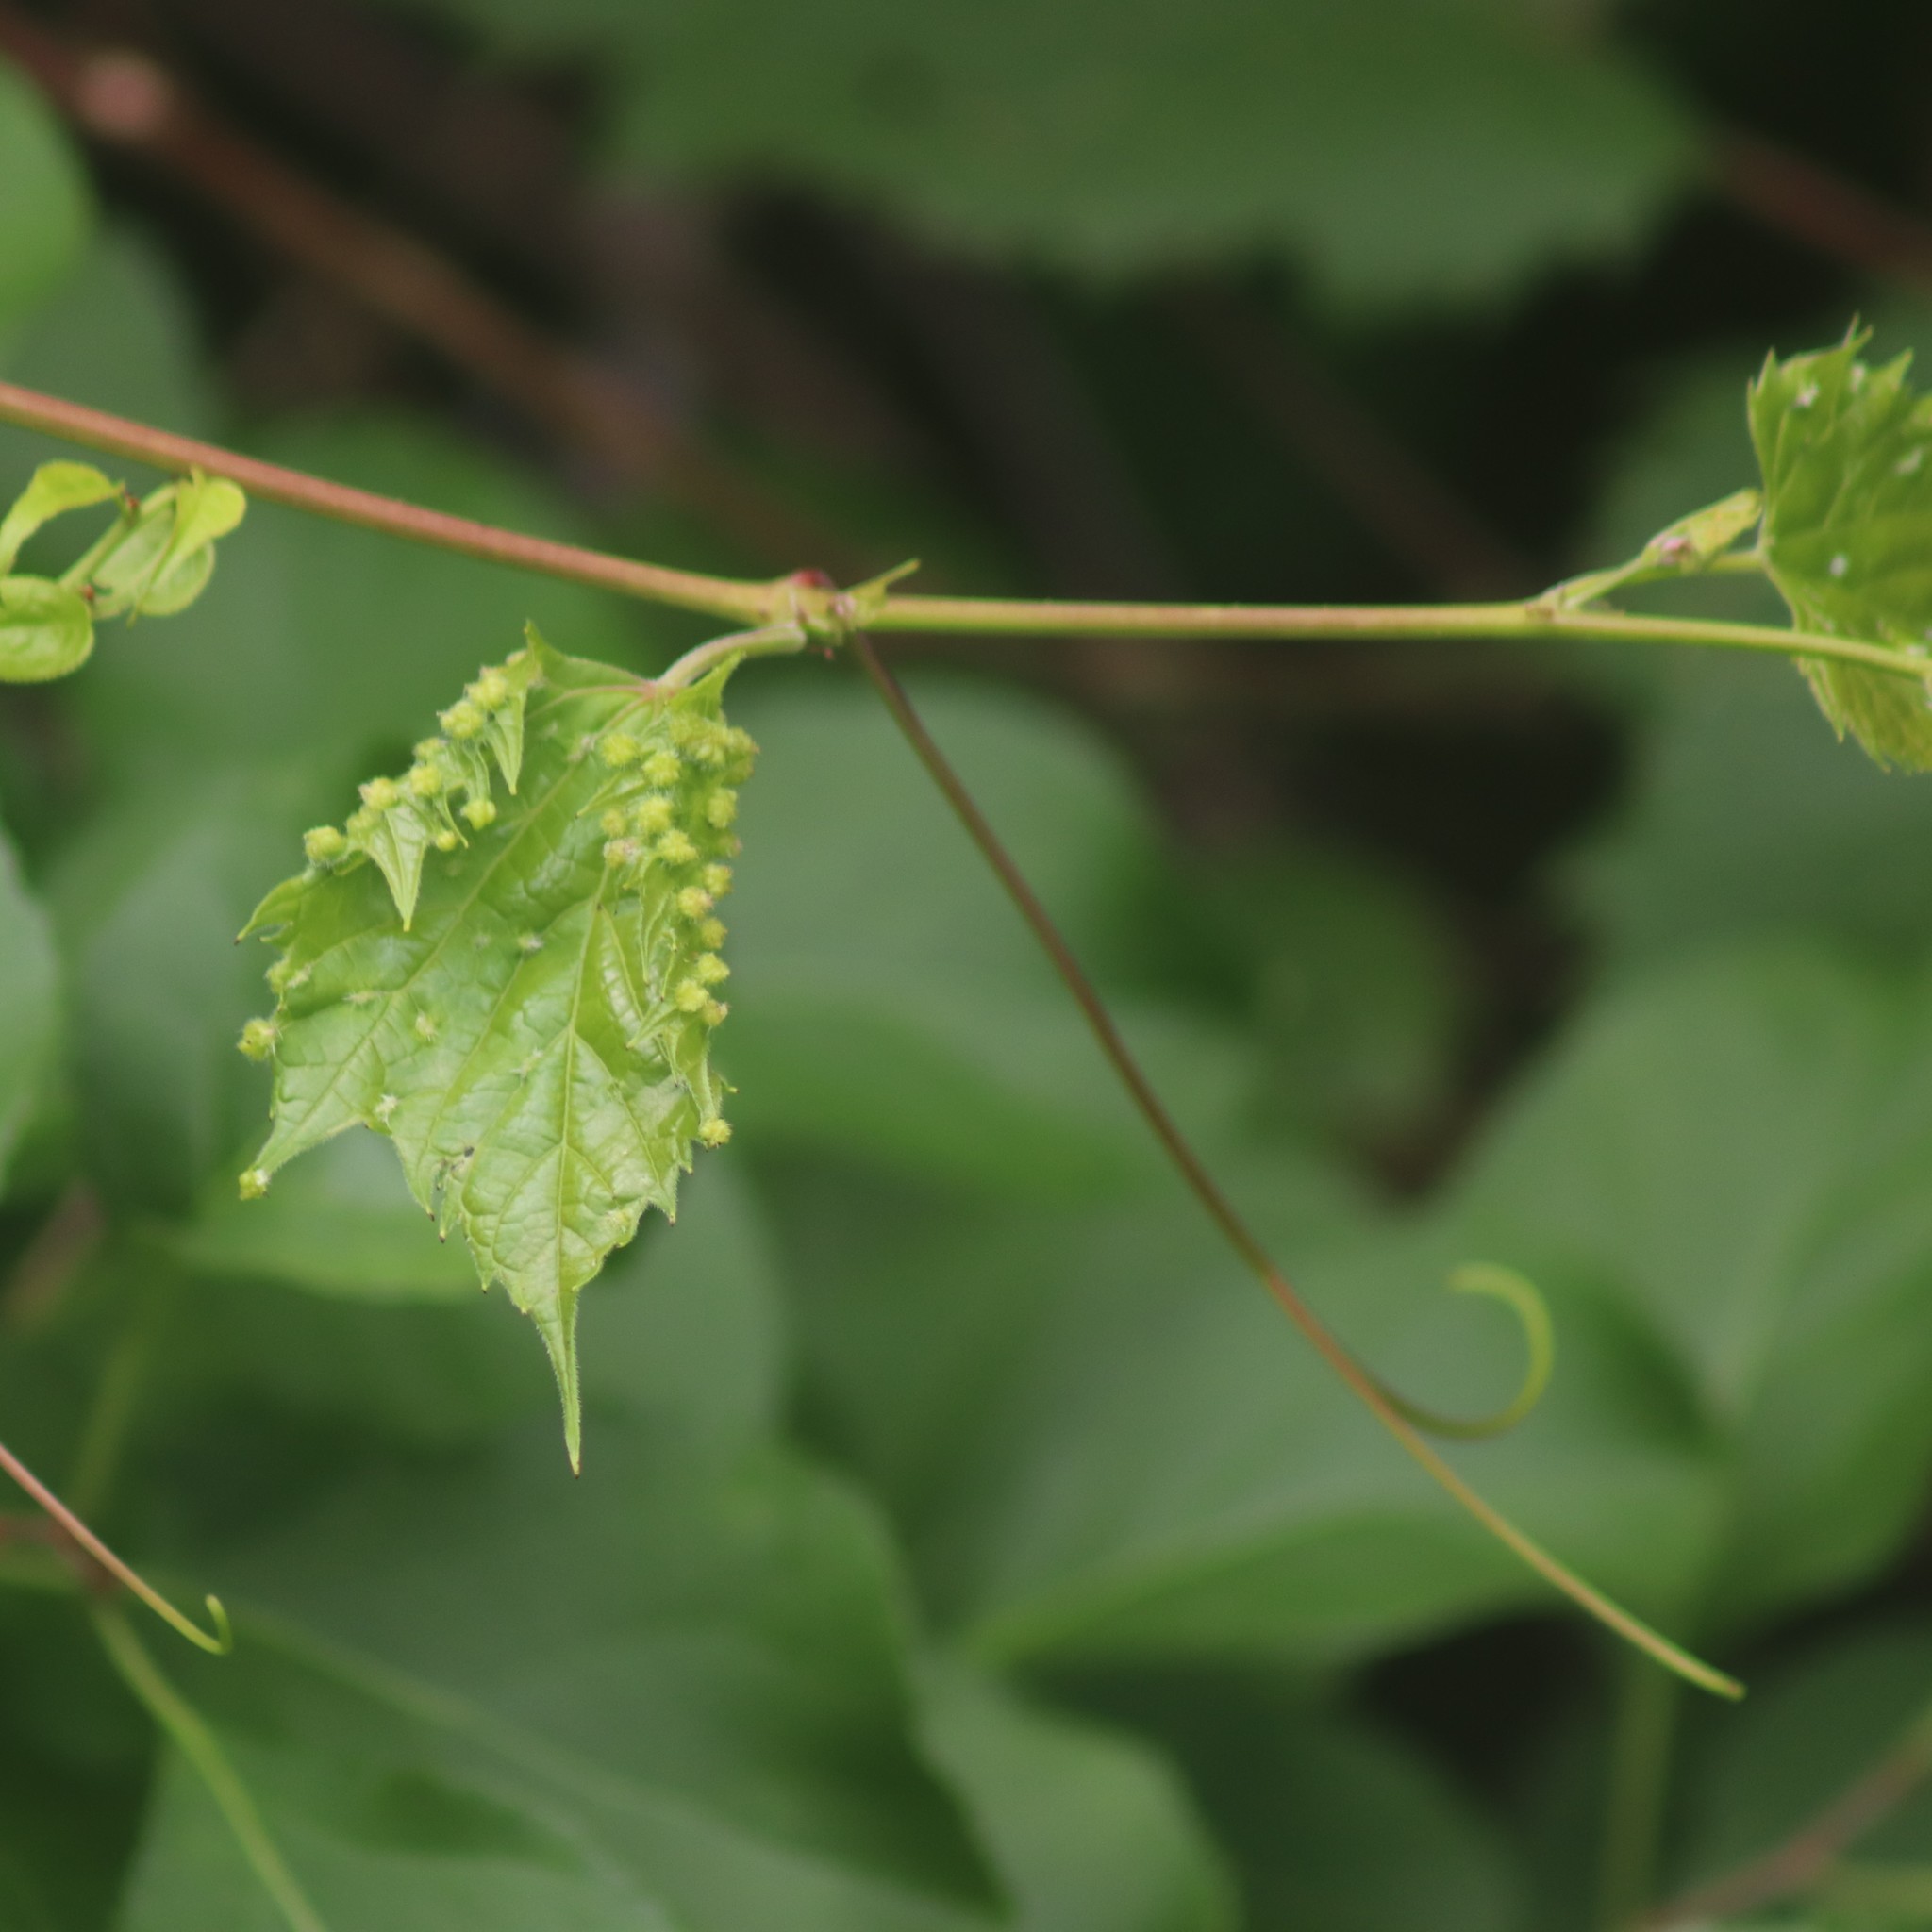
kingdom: Animalia
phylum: Arthropoda
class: Insecta
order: Hemiptera
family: Phylloxeridae
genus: Daktulosphaira
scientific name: Daktulosphaira vitifoliae
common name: Grape phylloxera
